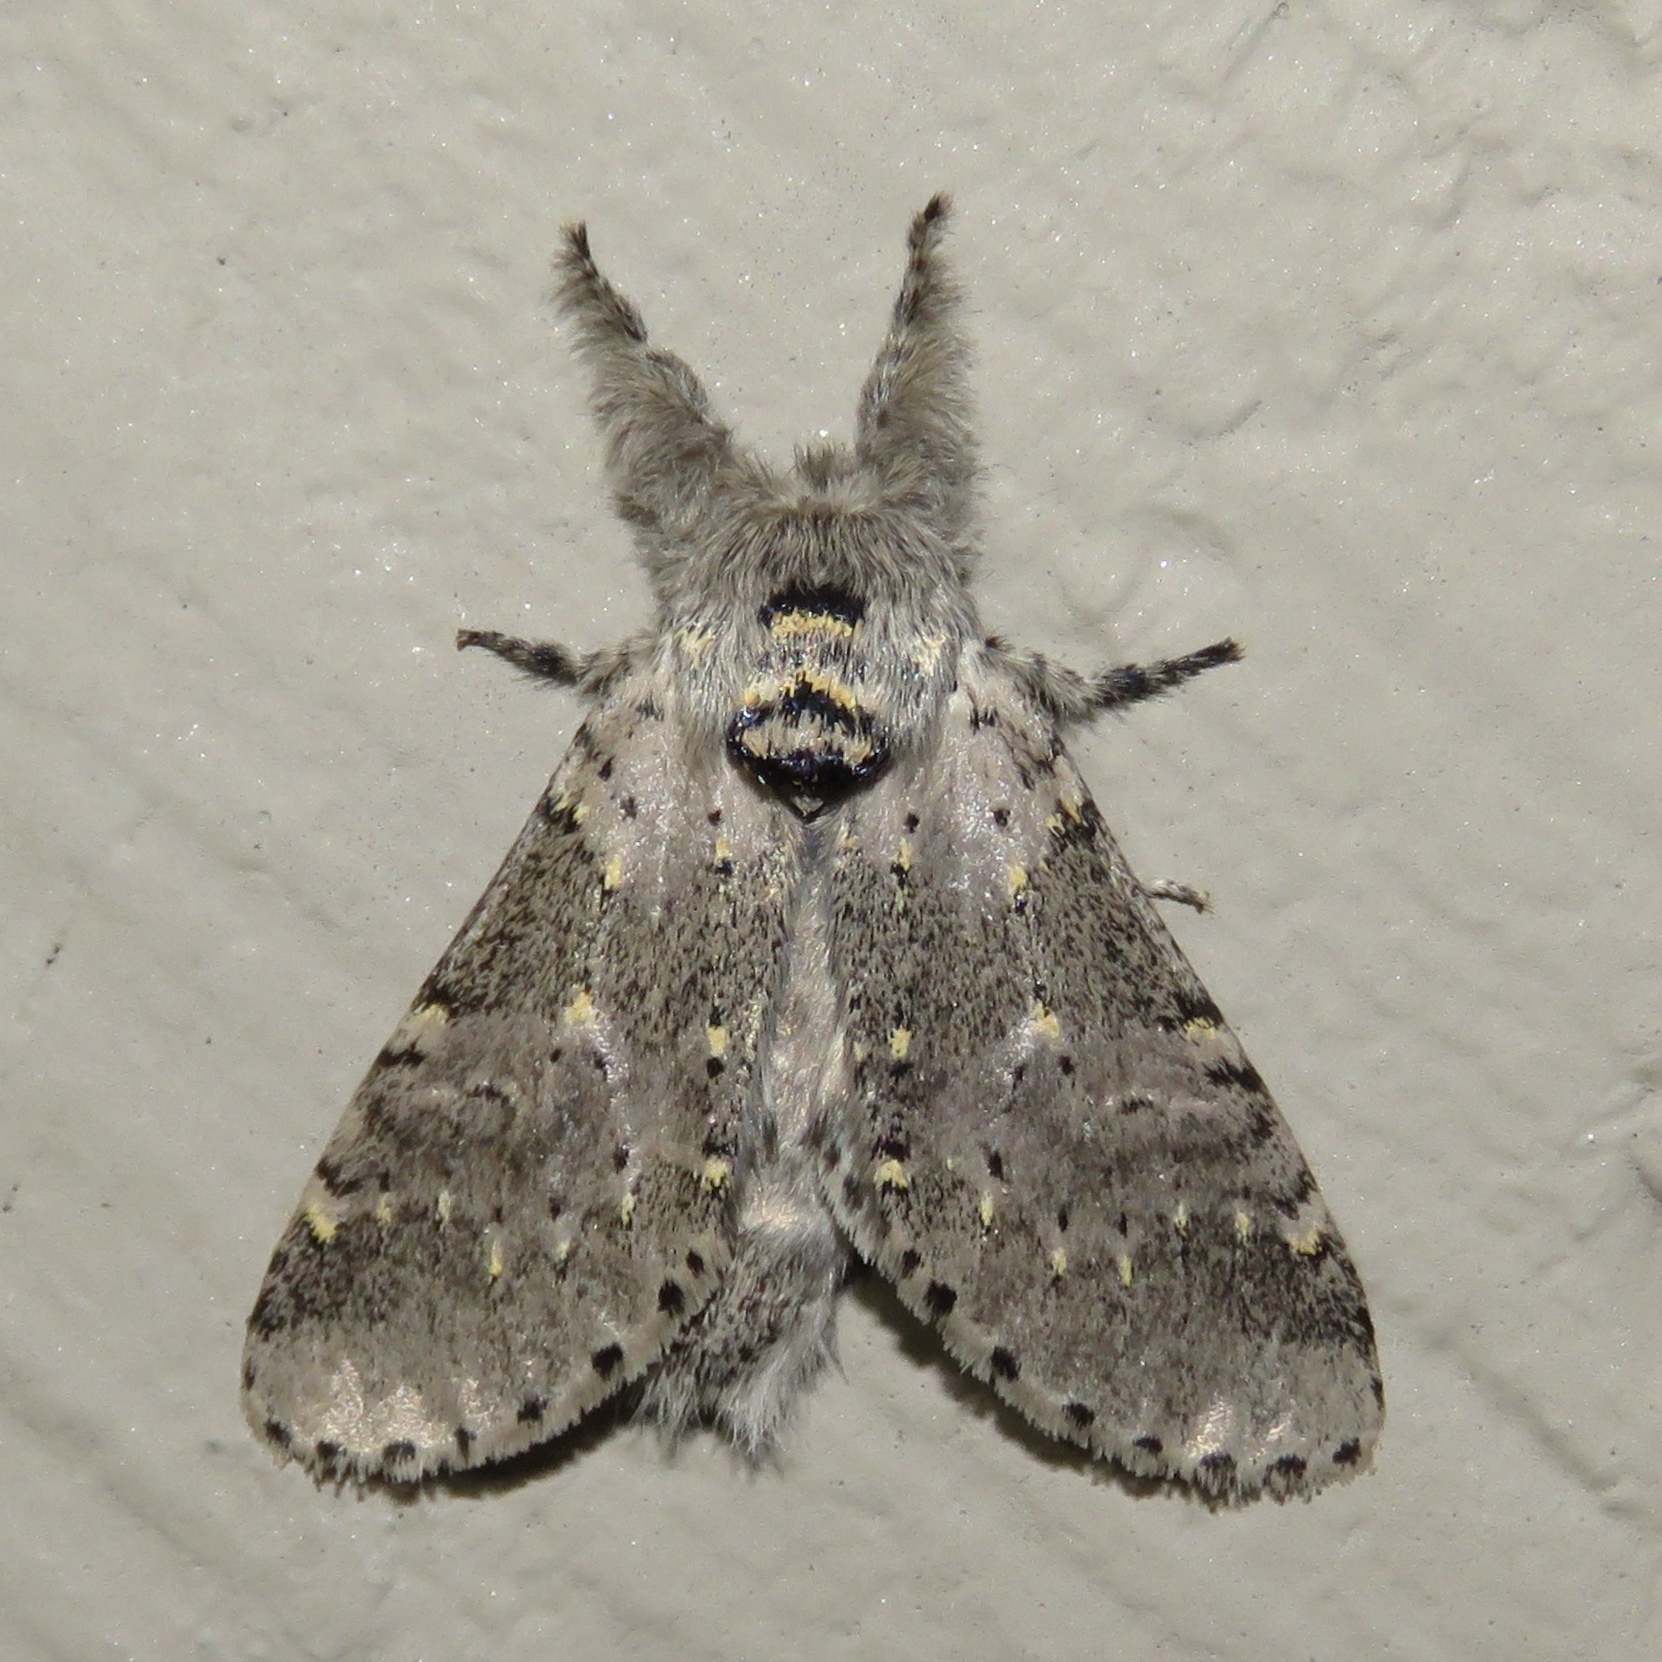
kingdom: Animalia
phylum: Arthropoda
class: Insecta
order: Lepidoptera
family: Notodontidae
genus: Furcula
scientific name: Furcula cinerea
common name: Gray furcula
